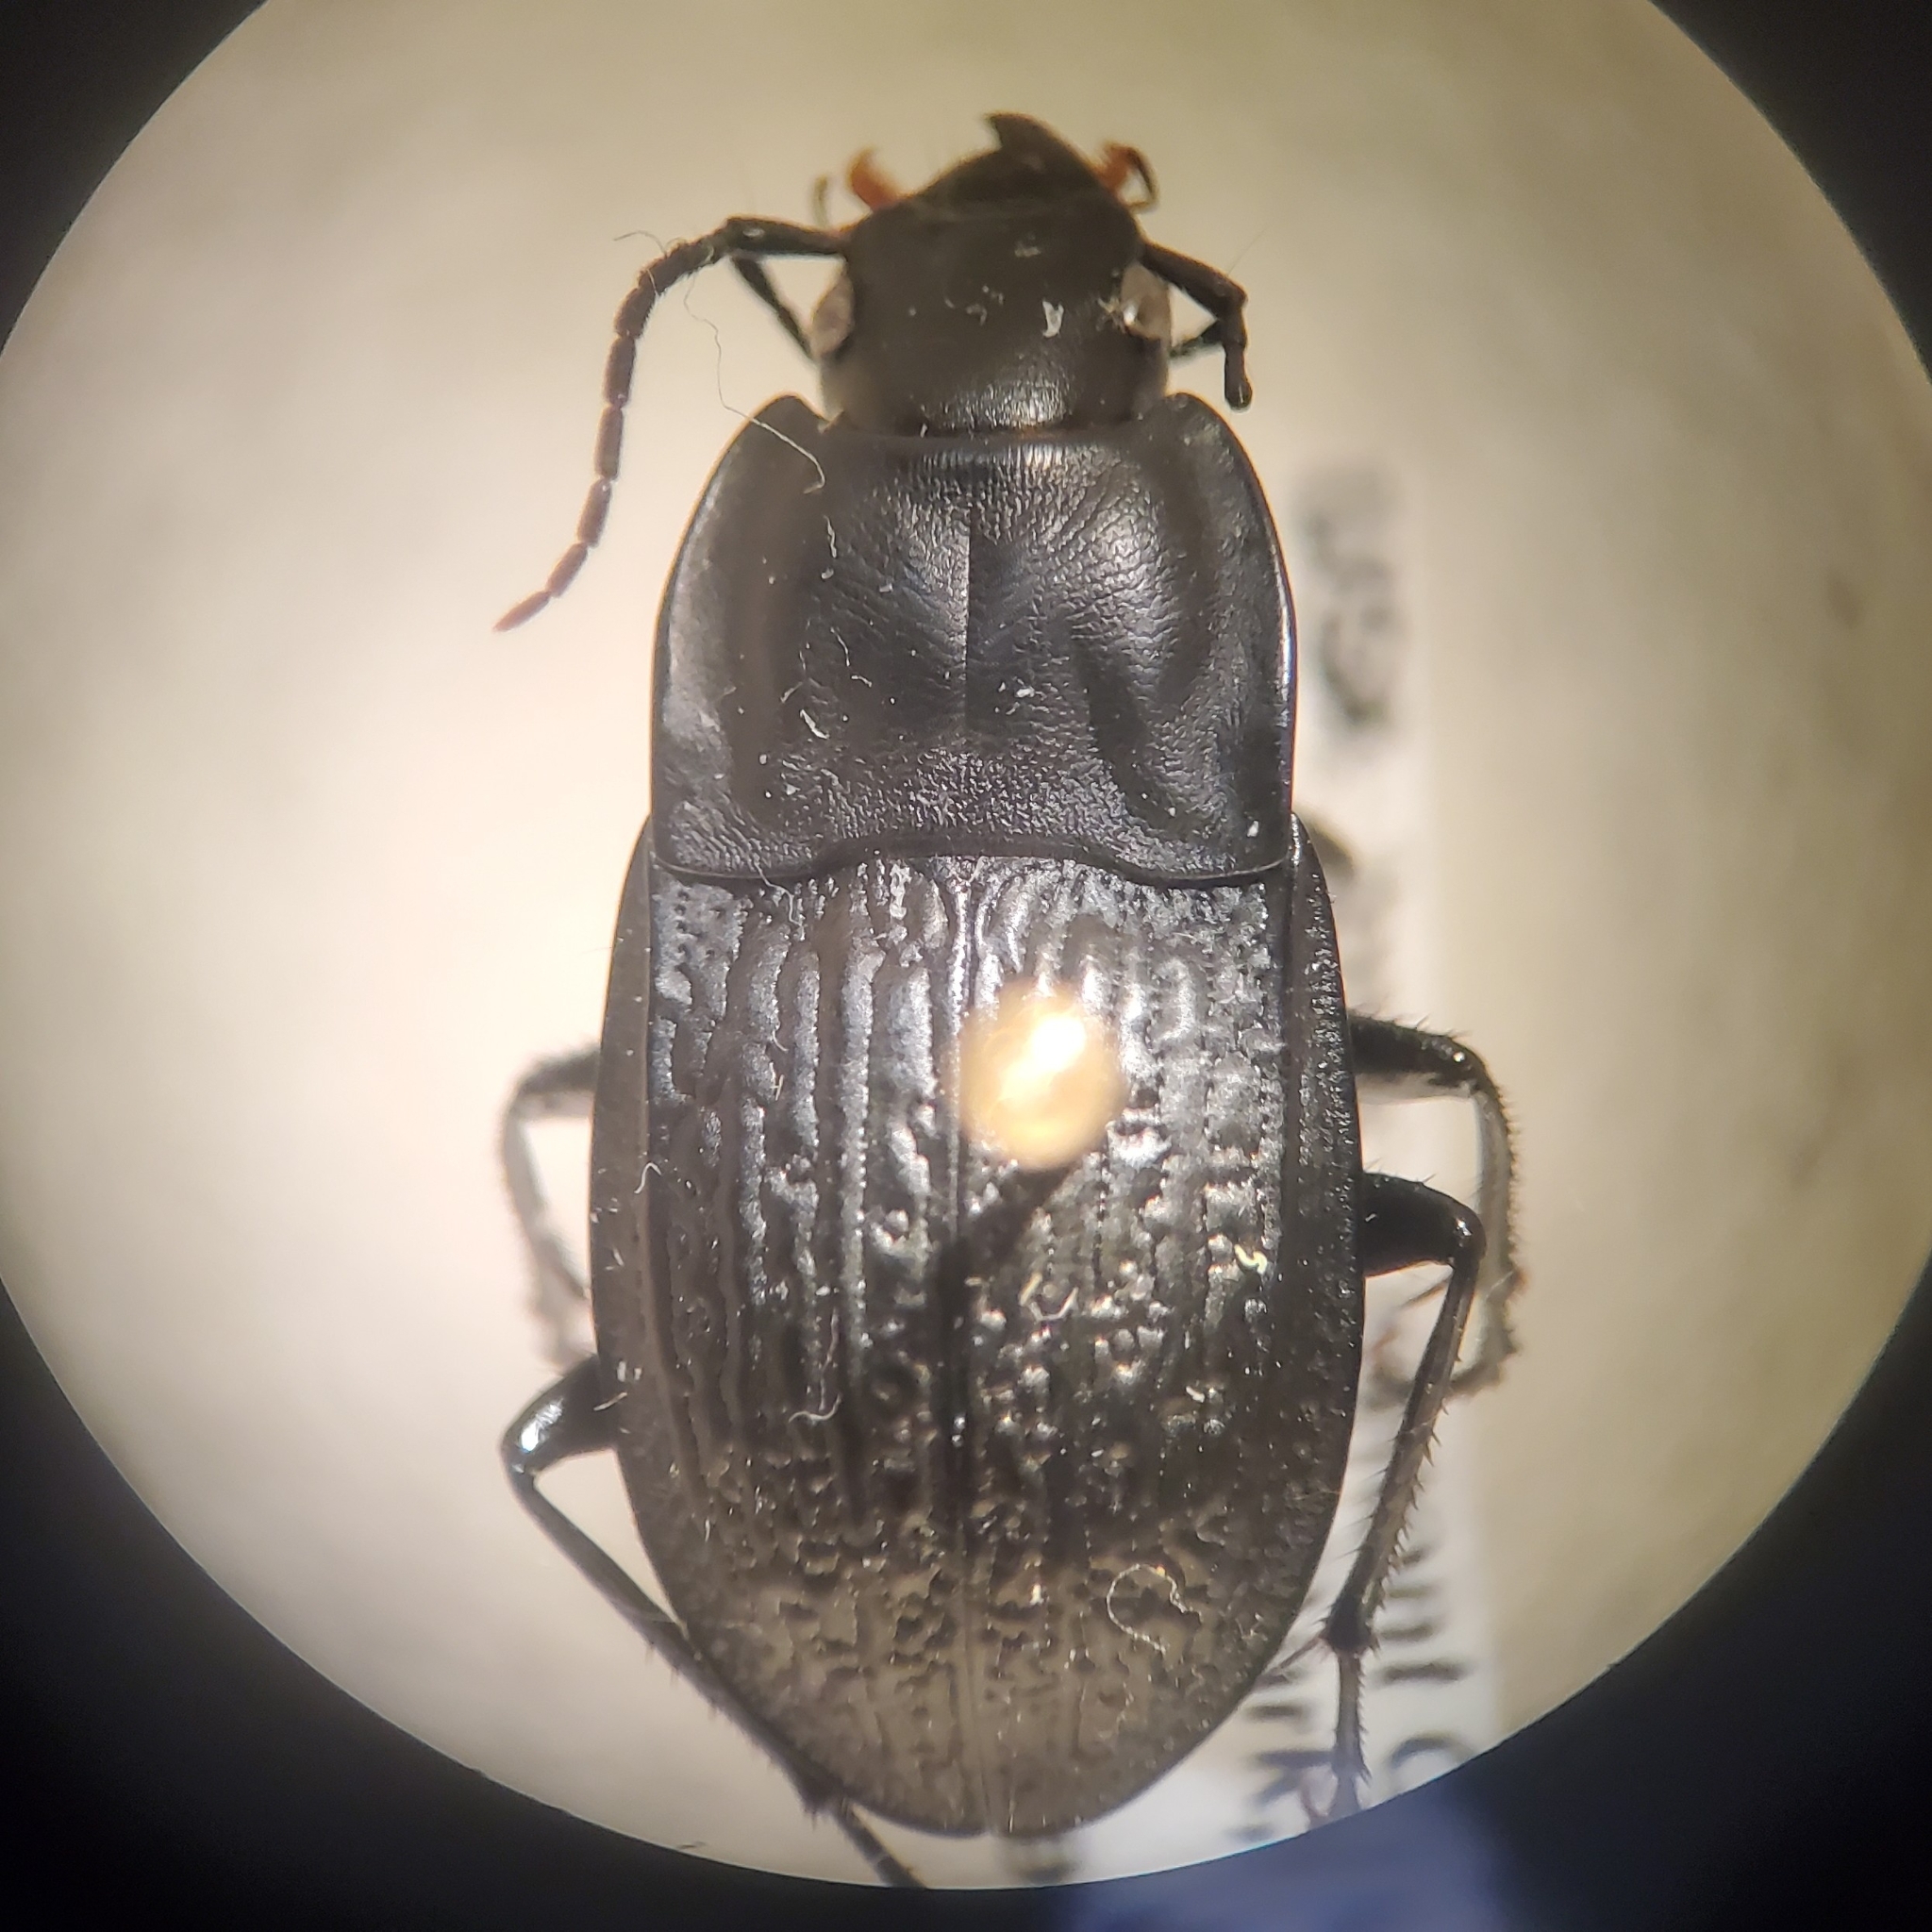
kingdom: Animalia
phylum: Arthropoda
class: Insecta
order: Coleoptera
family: Carabidae
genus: Dicaelus
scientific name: Dicaelus sculptilis
